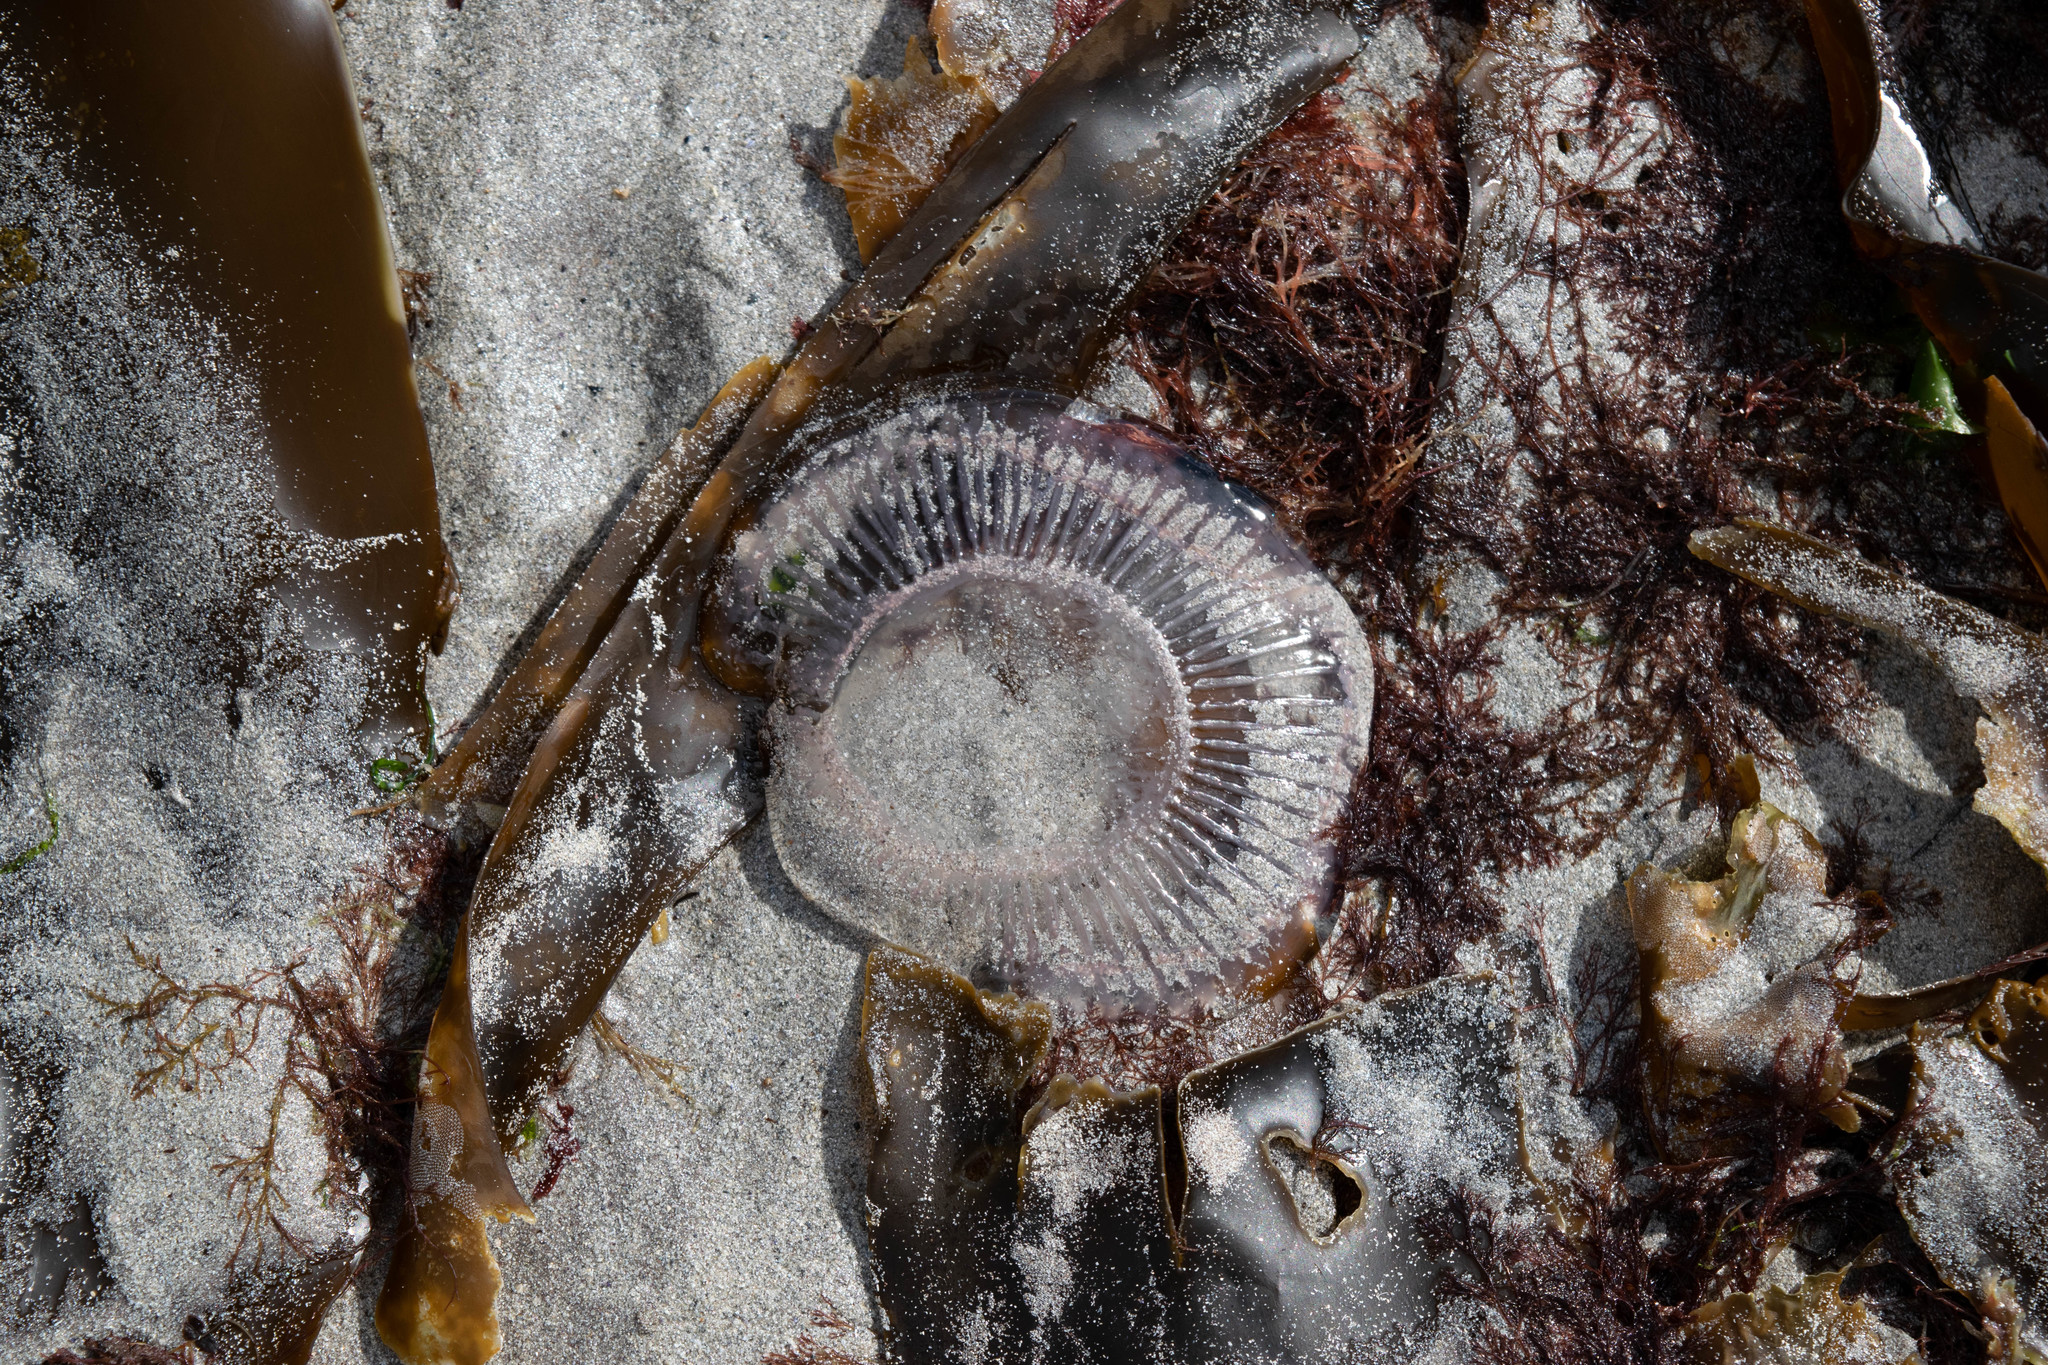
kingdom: Animalia
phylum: Cnidaria
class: Hydrozoa
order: Leptothecata
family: Aequoreidae
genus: Aequorea
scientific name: Aequorea forskalea
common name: Many-ribbed jellyfish
